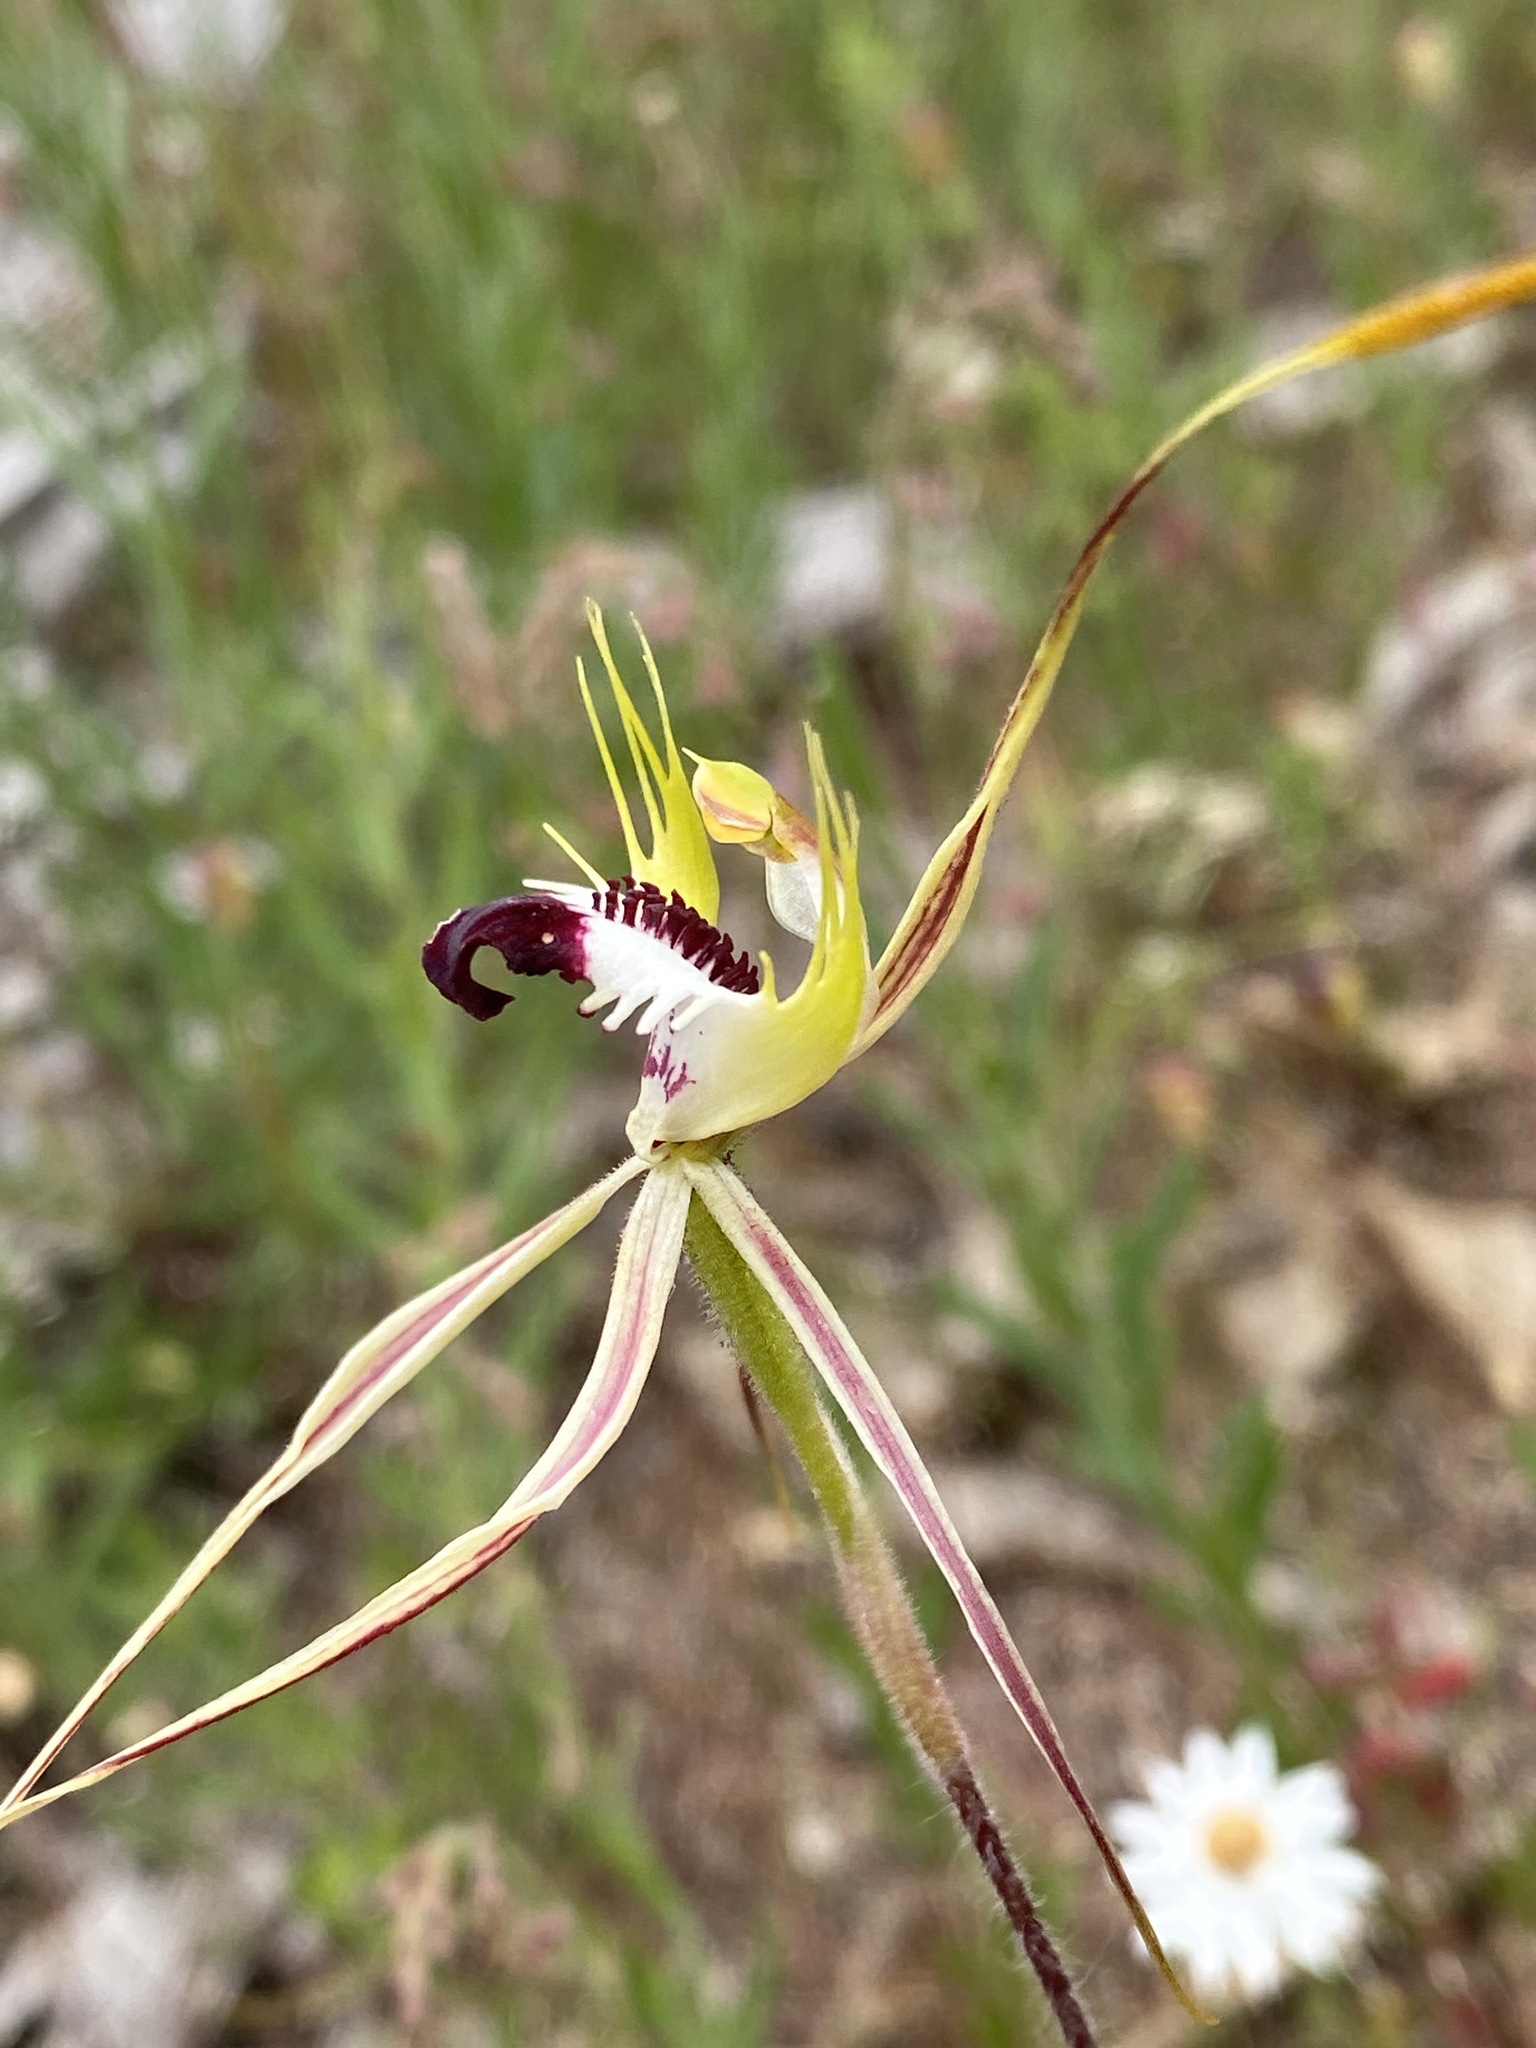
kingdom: Plantae
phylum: Tracheophyta
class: Liliopsida
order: Asparagales
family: Orchidaceae
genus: Caladenia
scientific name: Caladenia tentaculata
